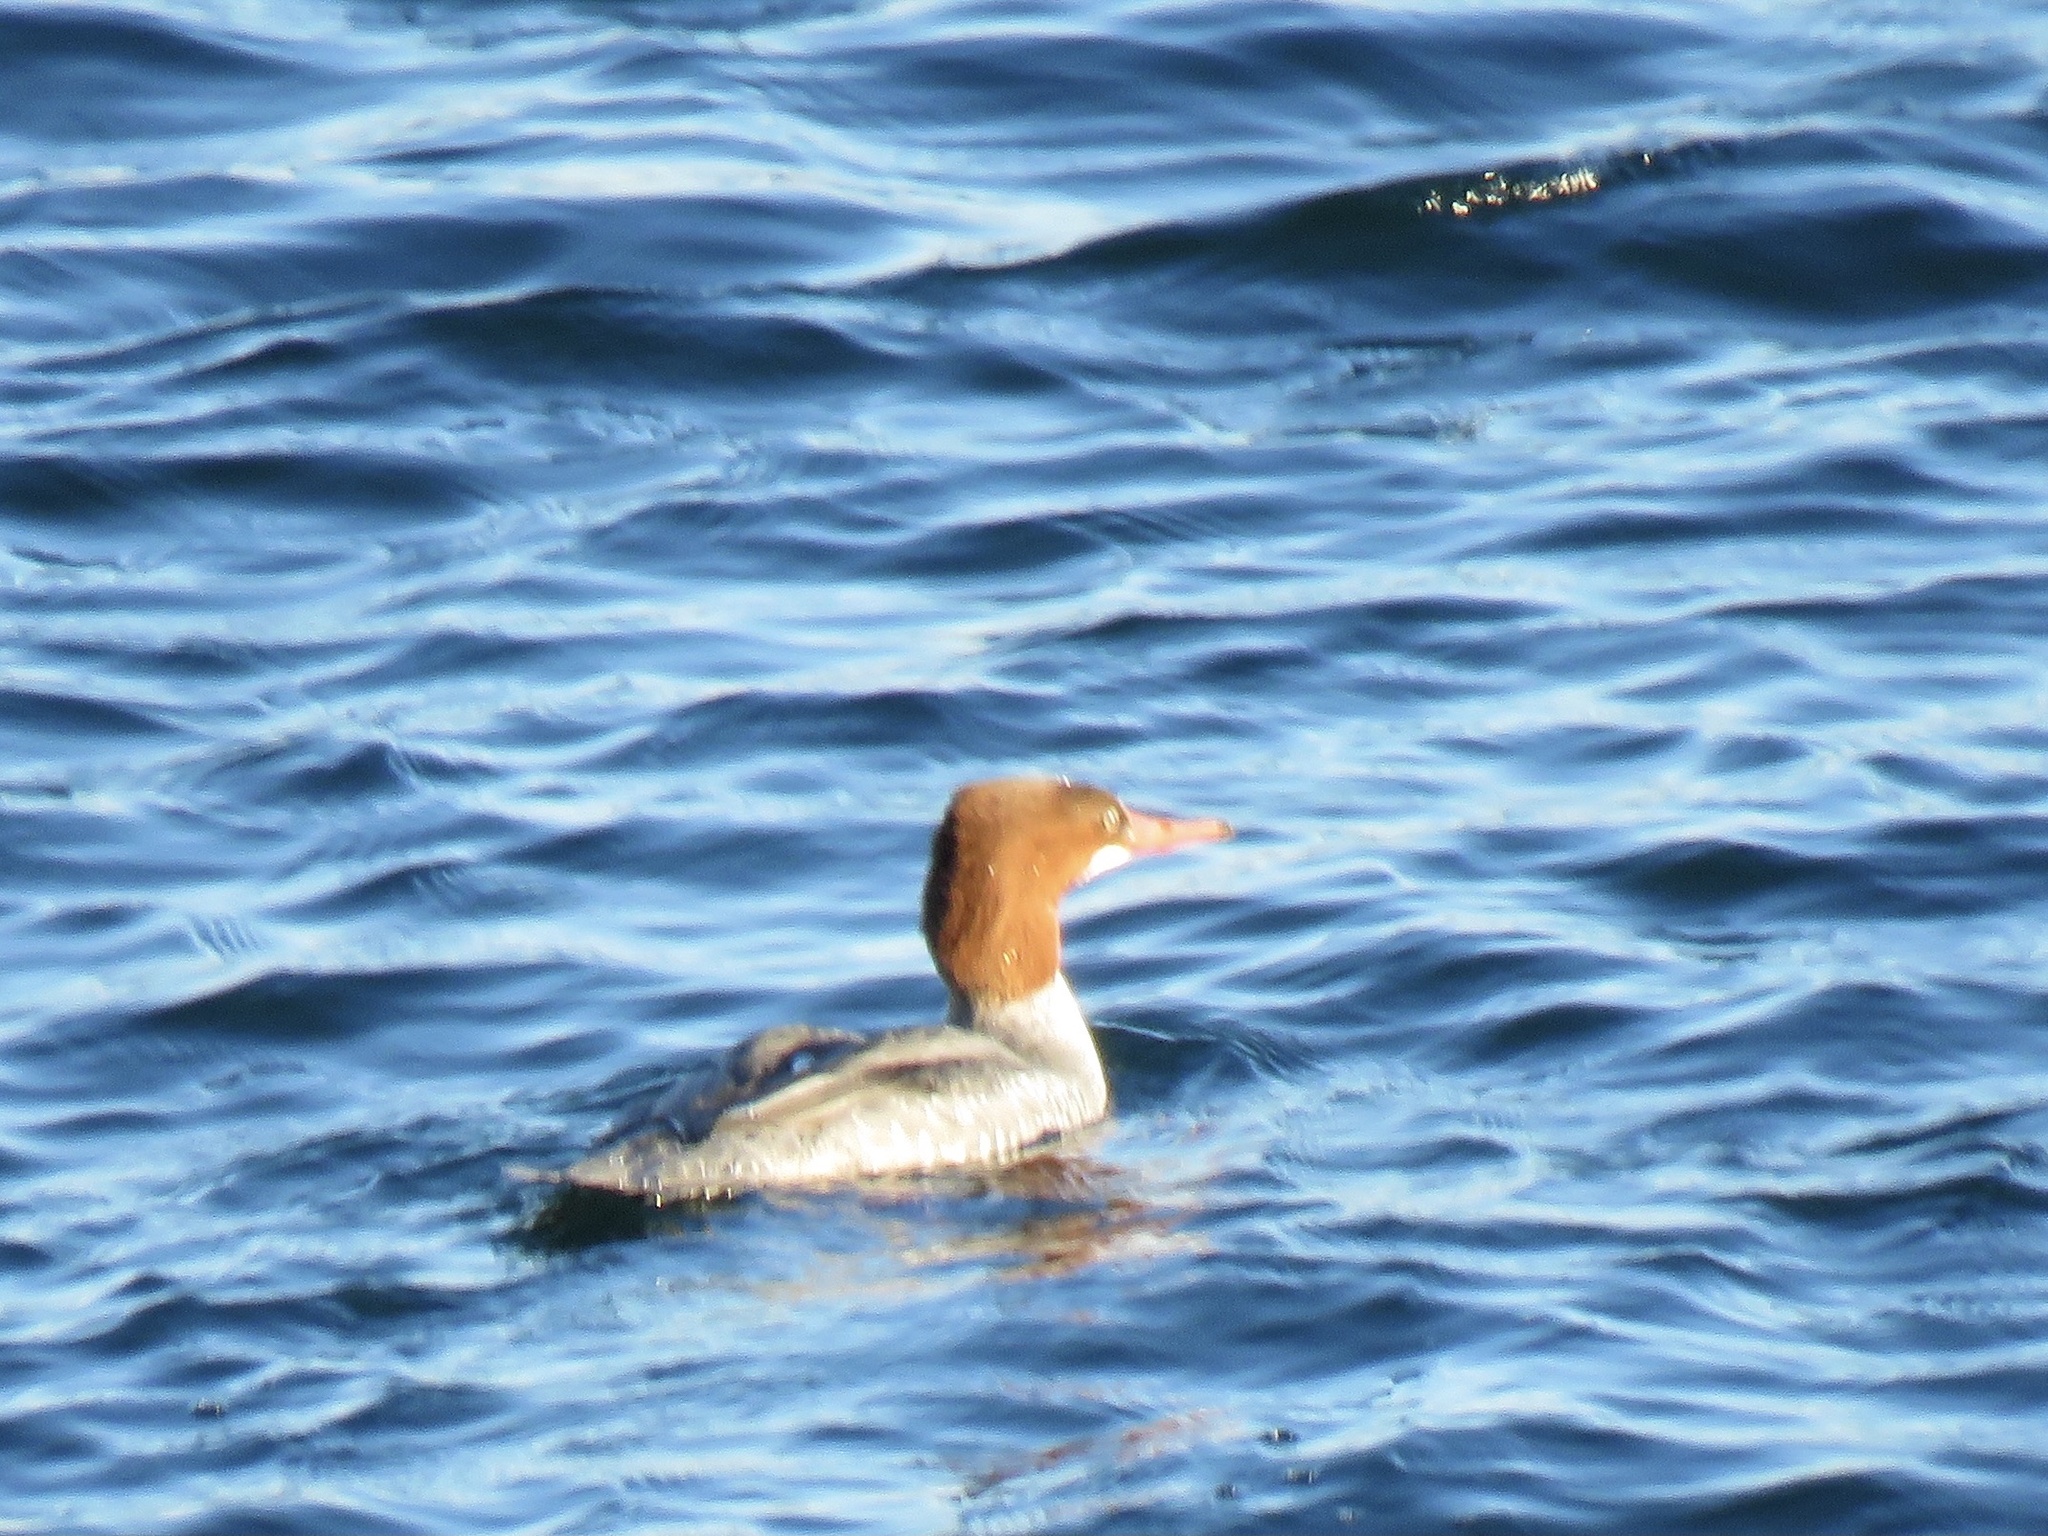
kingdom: Animalia
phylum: Chordata
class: Aves
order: Anseriformes
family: Anatidae
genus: Mergus
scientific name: Mergus merganser
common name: Common merganser
